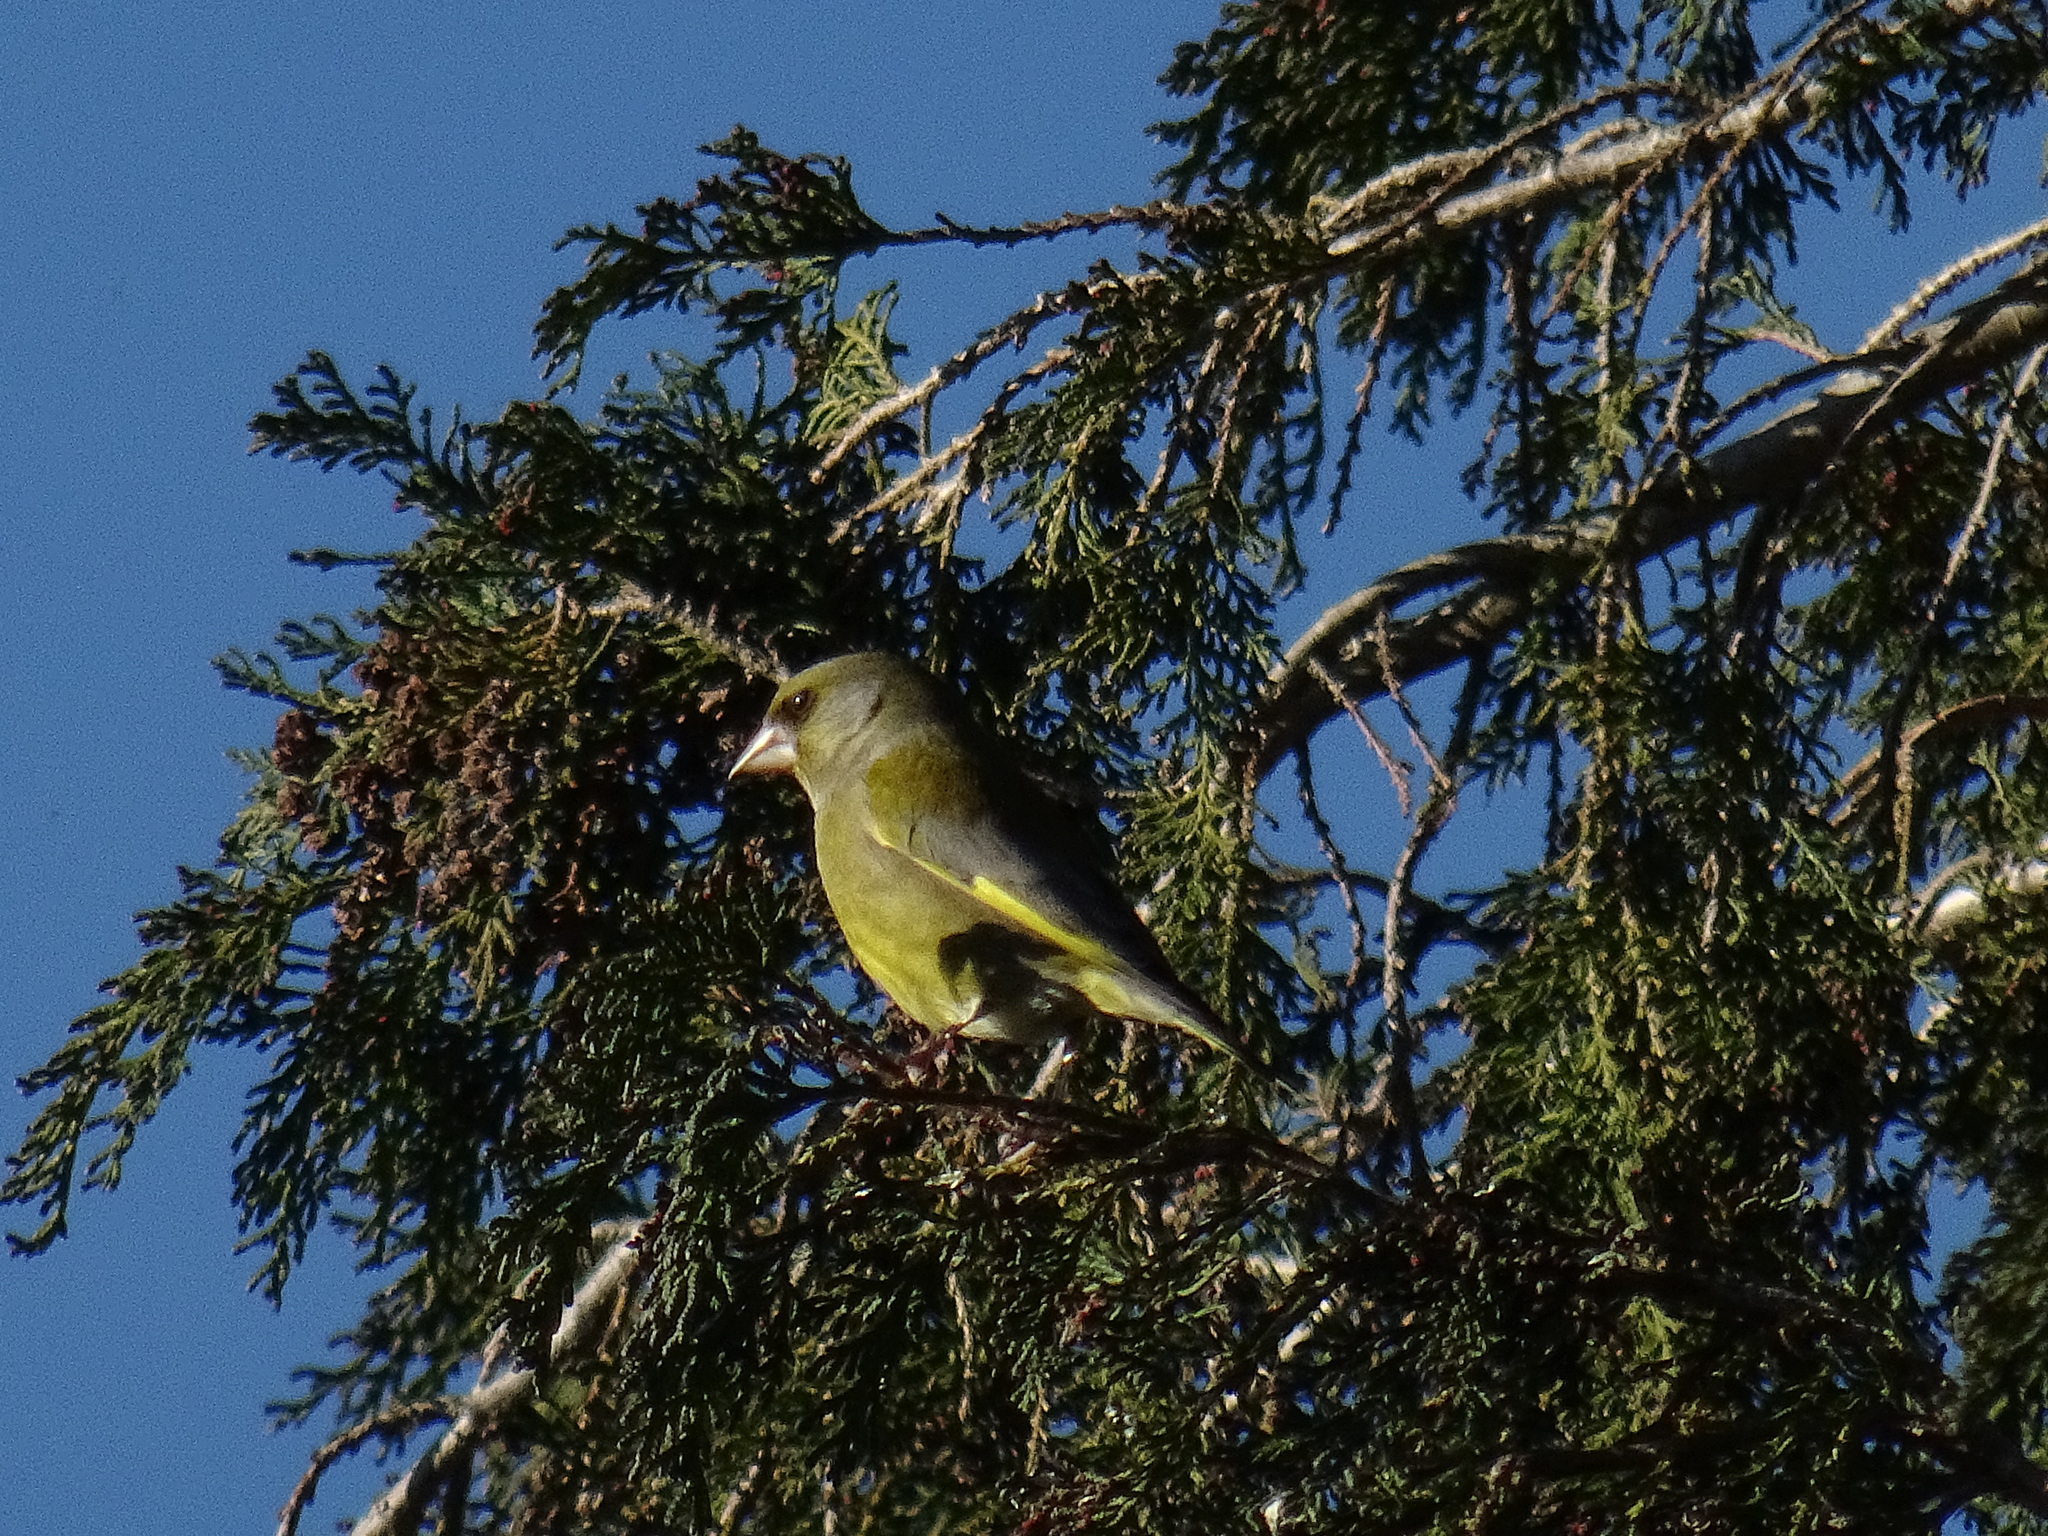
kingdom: Plantae
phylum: Tracheophyta
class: Liliopsida
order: Poales
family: Poaceae
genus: Chloris
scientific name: Chloris chloris
